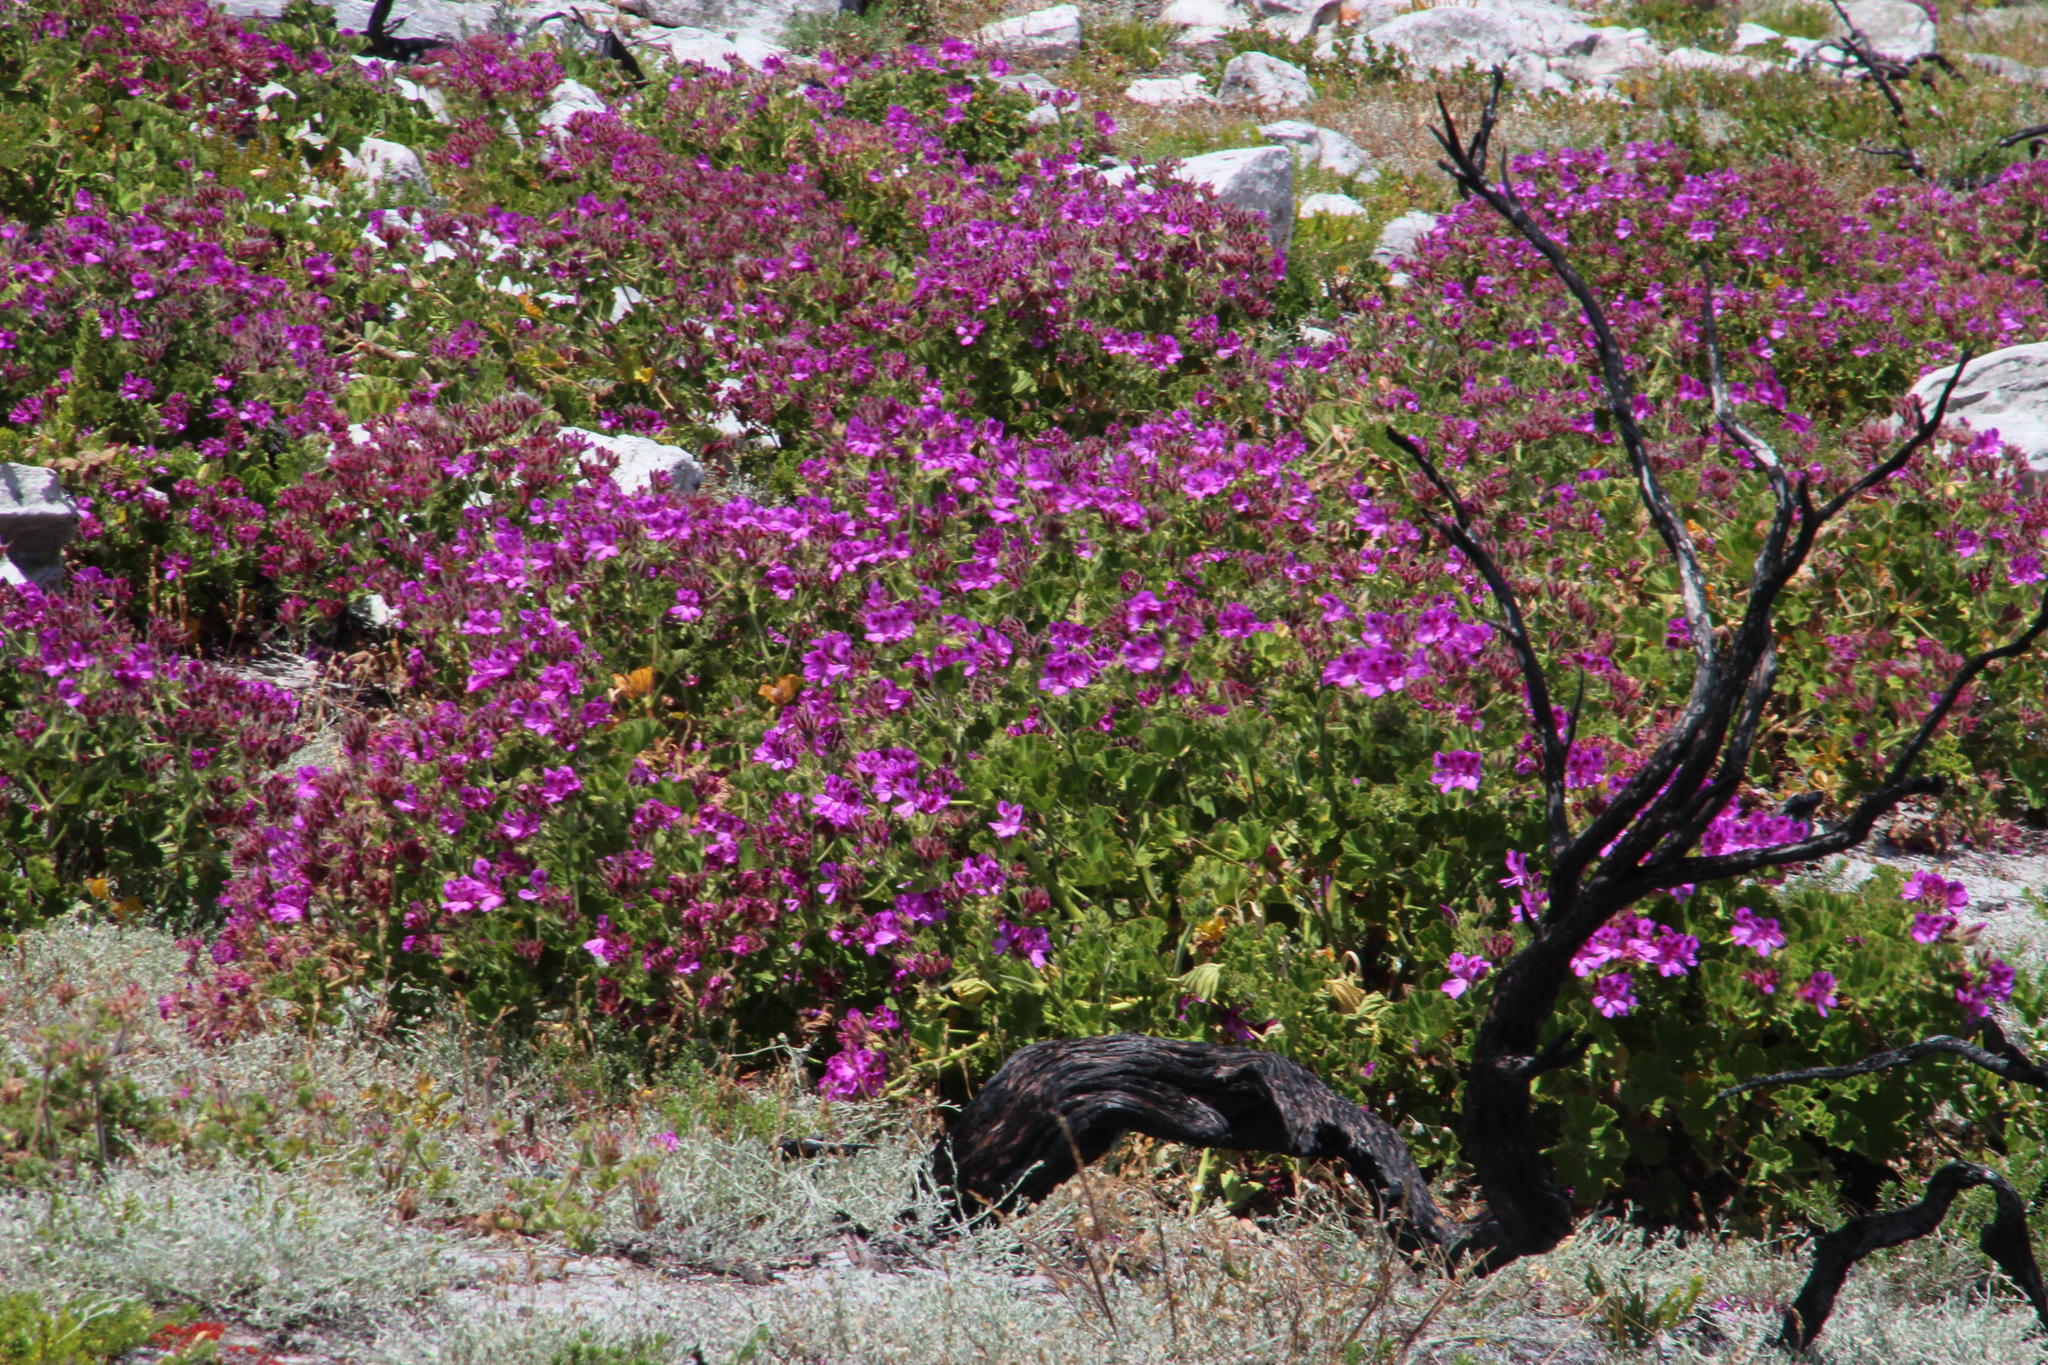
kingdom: Plantae
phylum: Tracheophyta
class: Magnoliopsida
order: Geraniales
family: Geraniaceae
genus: Pelargonium
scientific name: Pelargonium cucullatum
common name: Tree pelargonium
